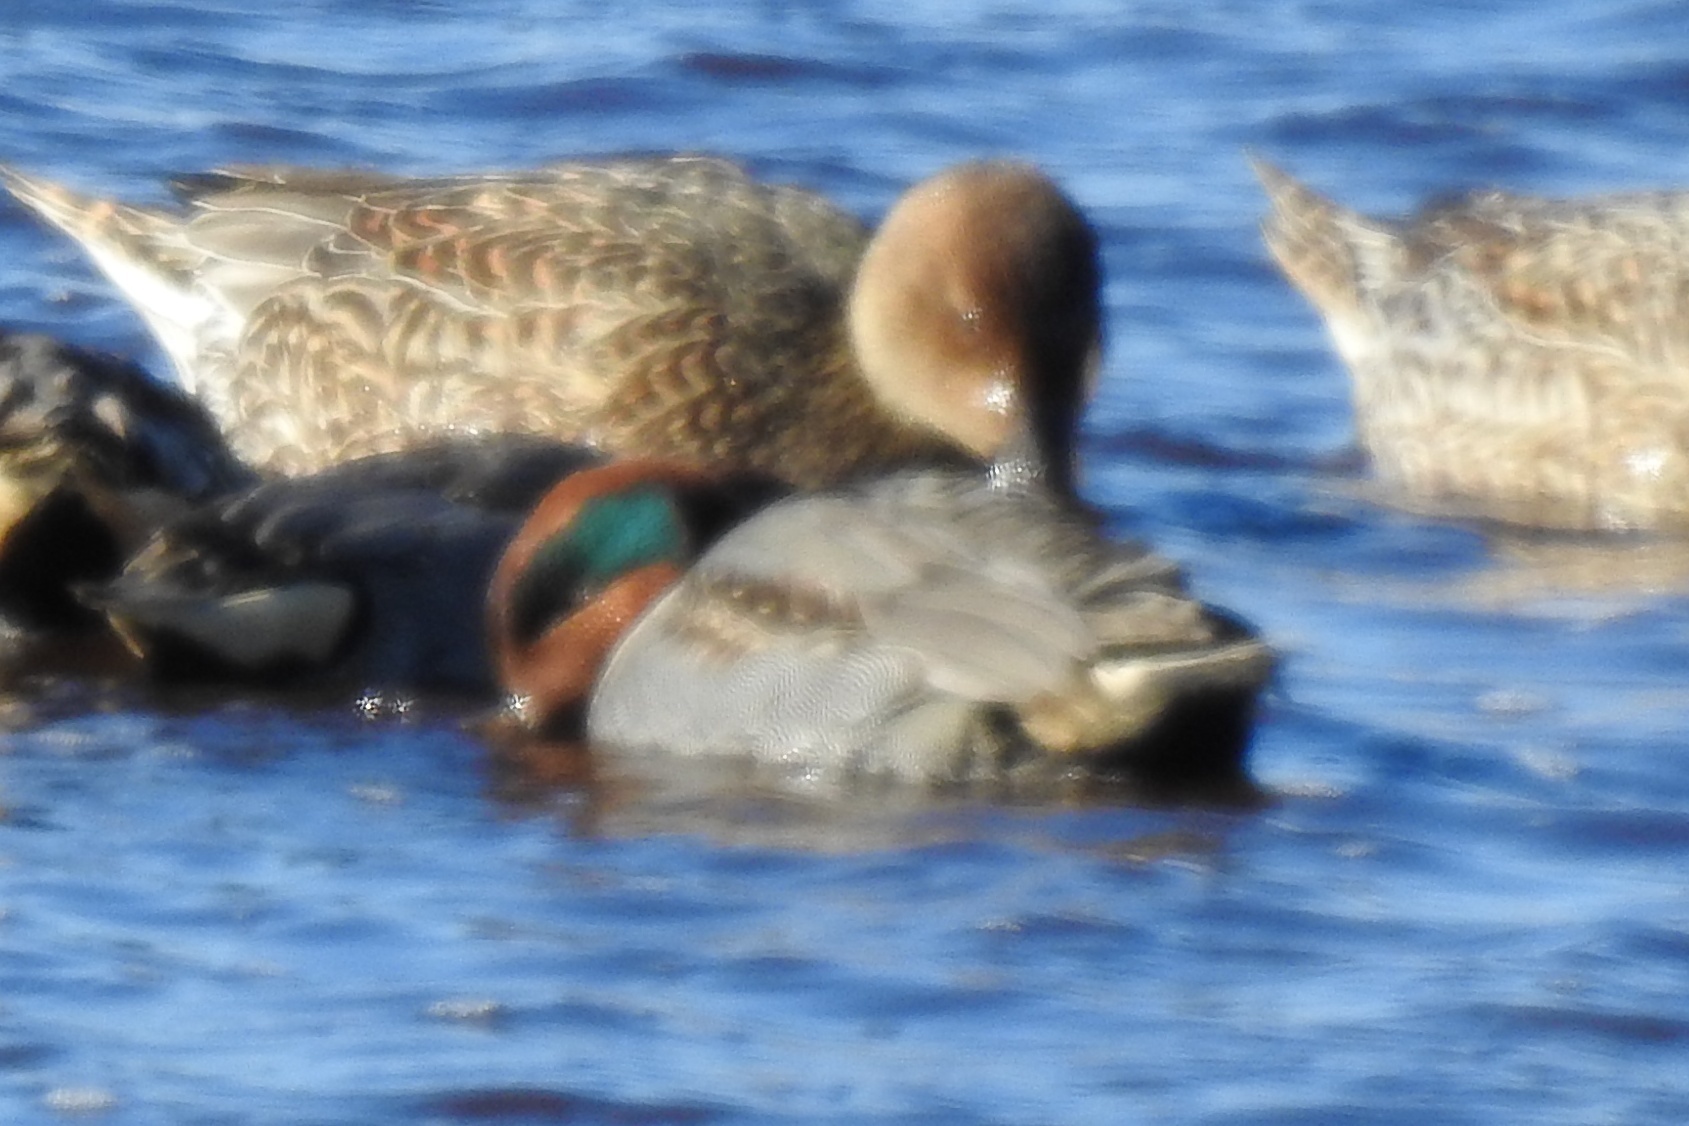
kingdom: Animalia
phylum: Chordata
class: Aves
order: Anseriformes
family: Anatidae
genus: Anas
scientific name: Anas crecca
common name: Eurasian teal
